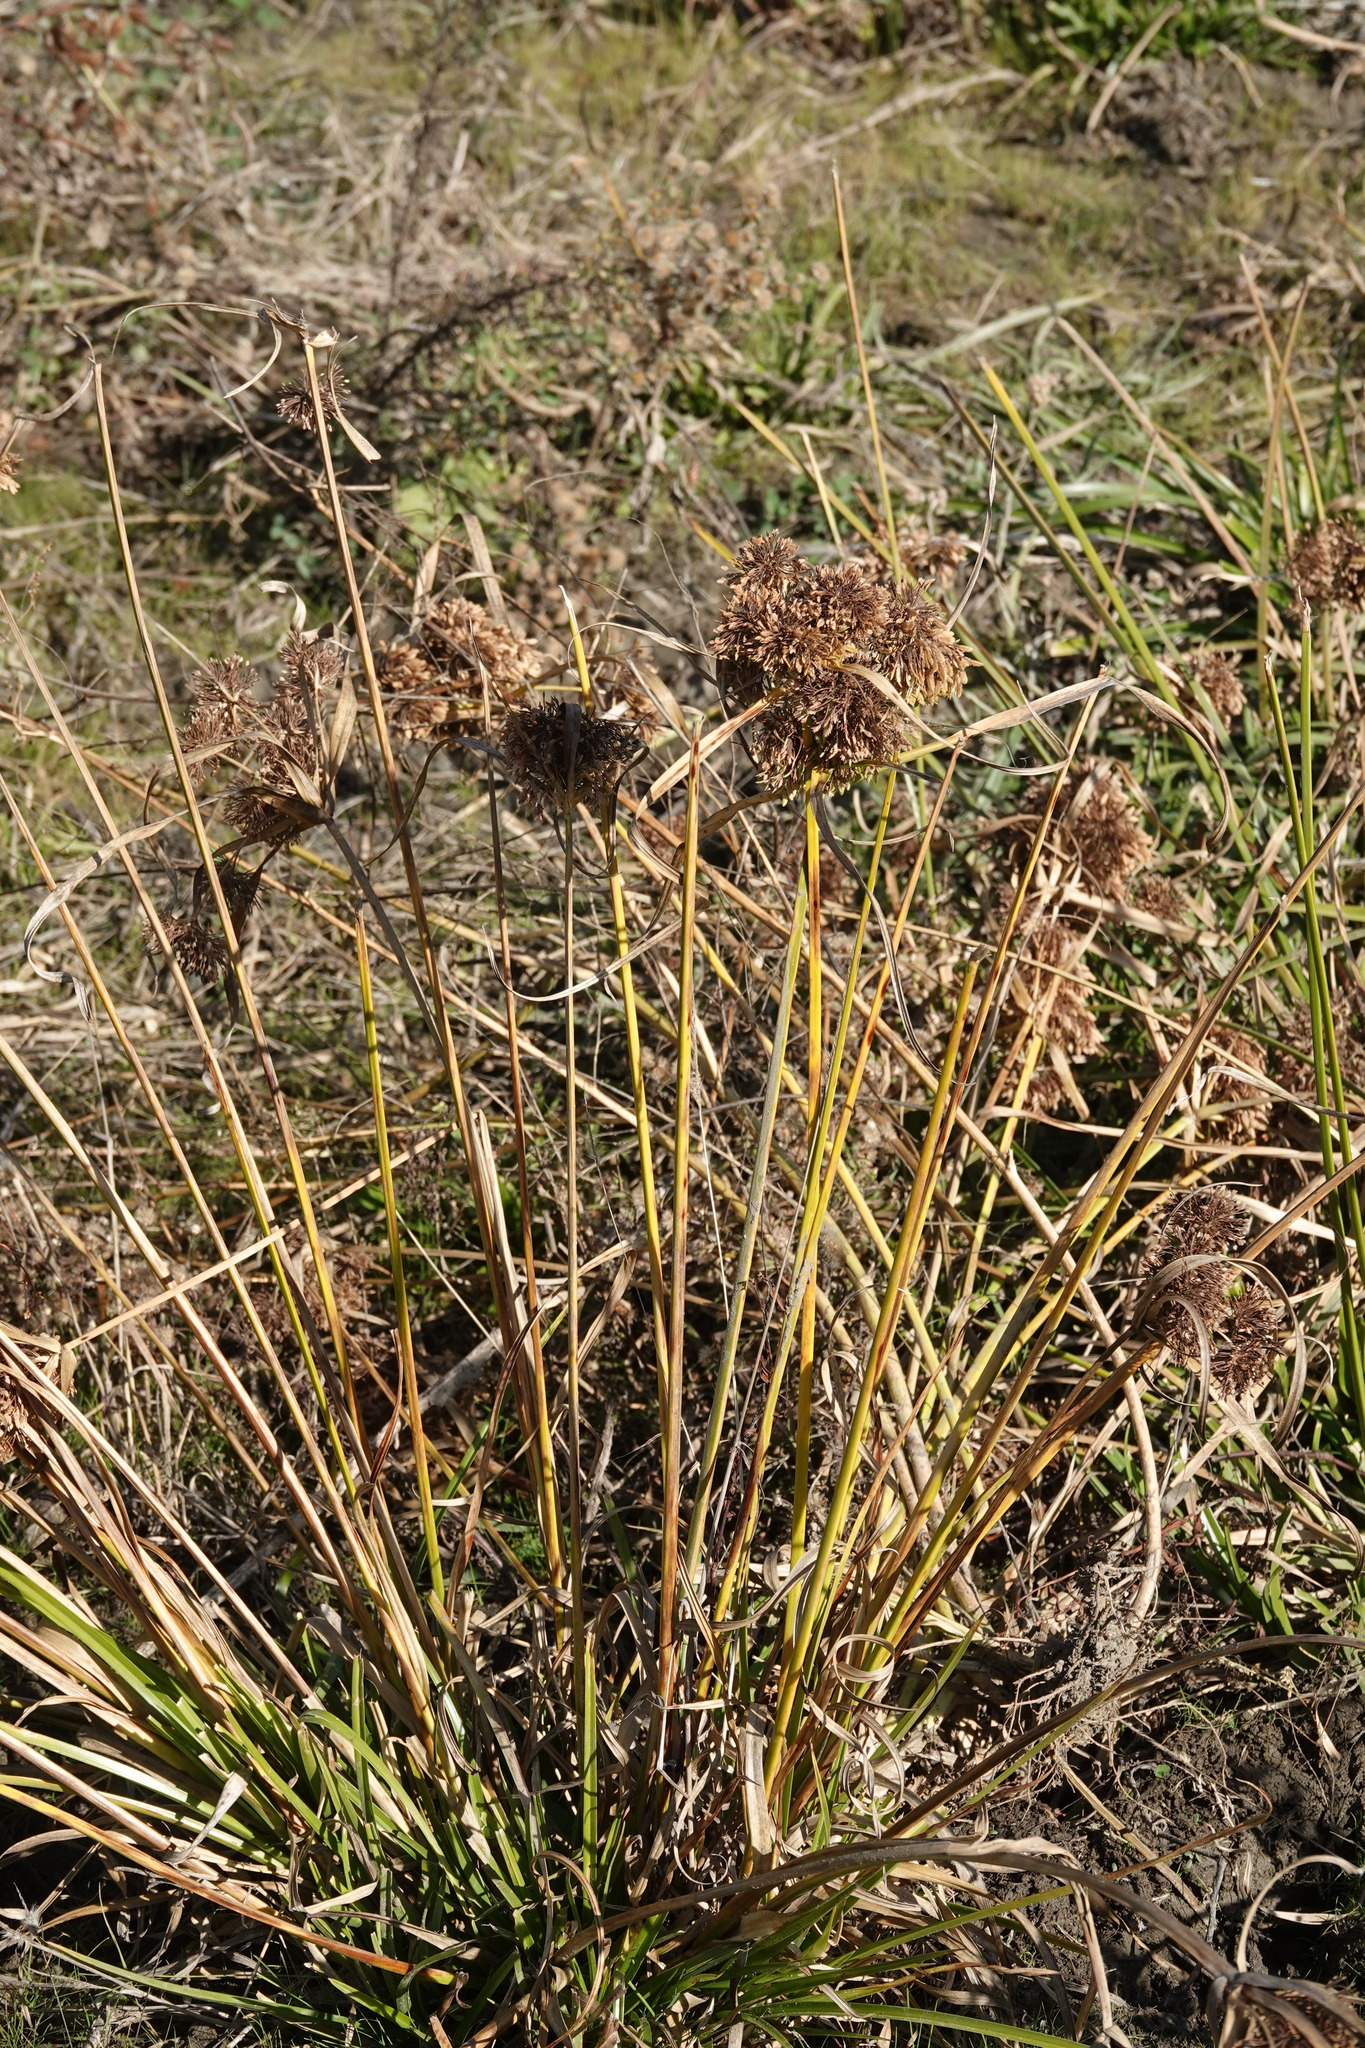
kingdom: Plantae
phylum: Tracheophyta
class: Liliopsida
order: Poales
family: Cyperaceae
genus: Cyperus
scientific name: Cyperus eragrostis
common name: Tall flatsedge
